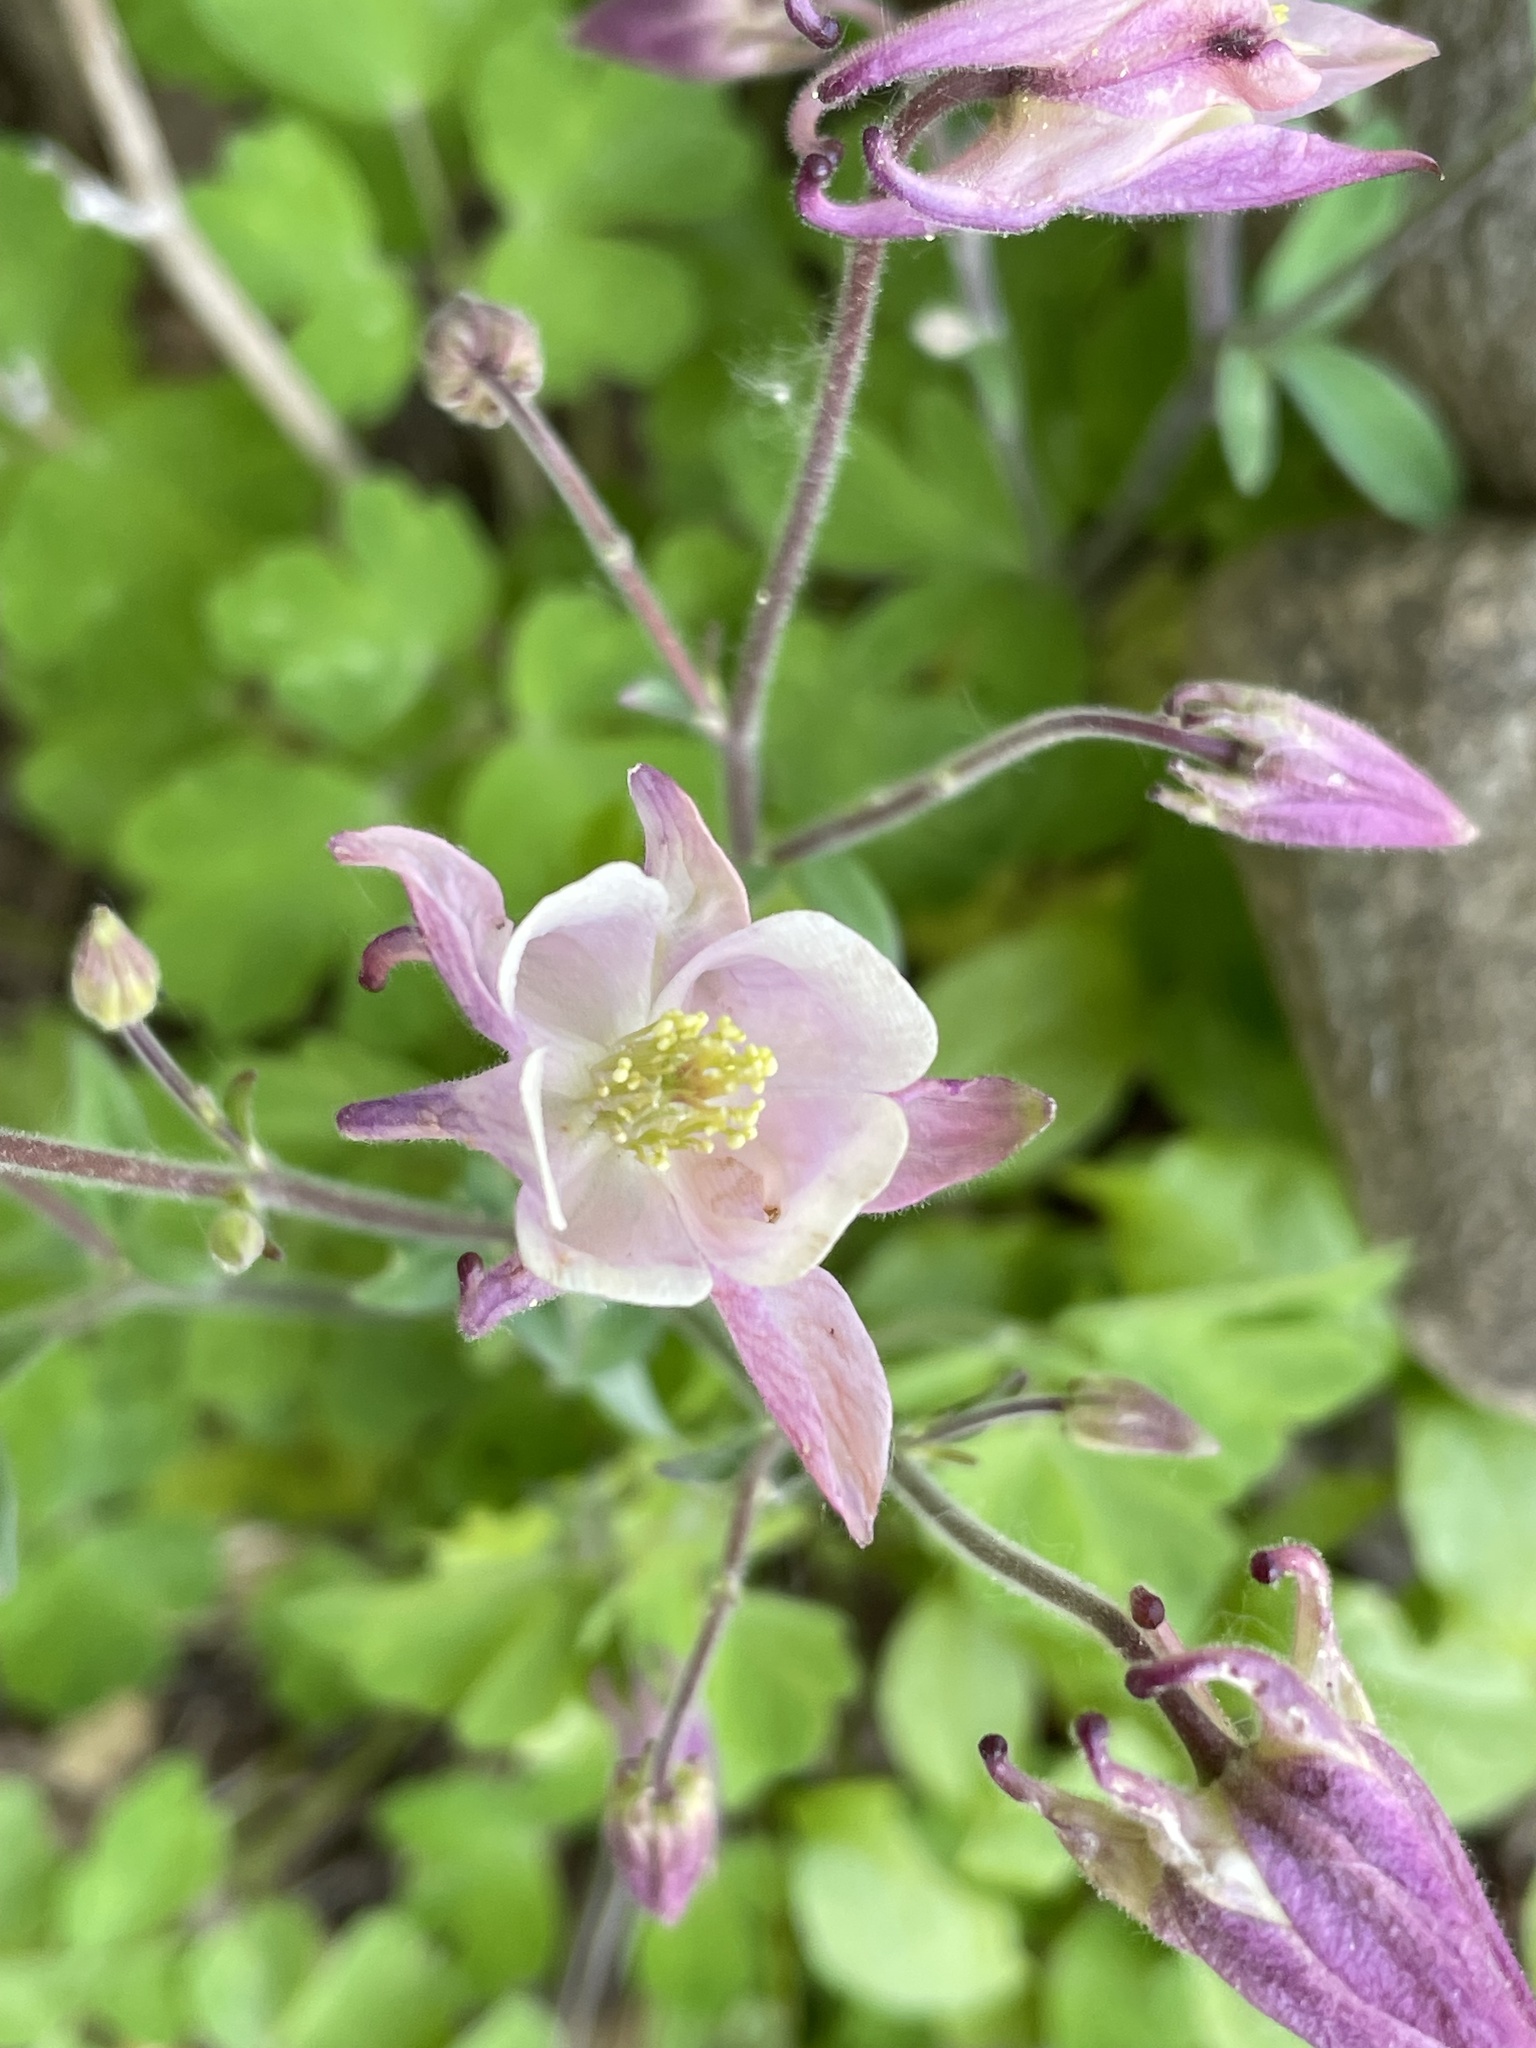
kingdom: Plantae
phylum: Tracheophyta
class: Magnoliopsida
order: Ranunculales
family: Ranunculaceae
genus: Aquilegia
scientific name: Aquilegia vulgaris
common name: Columbine
